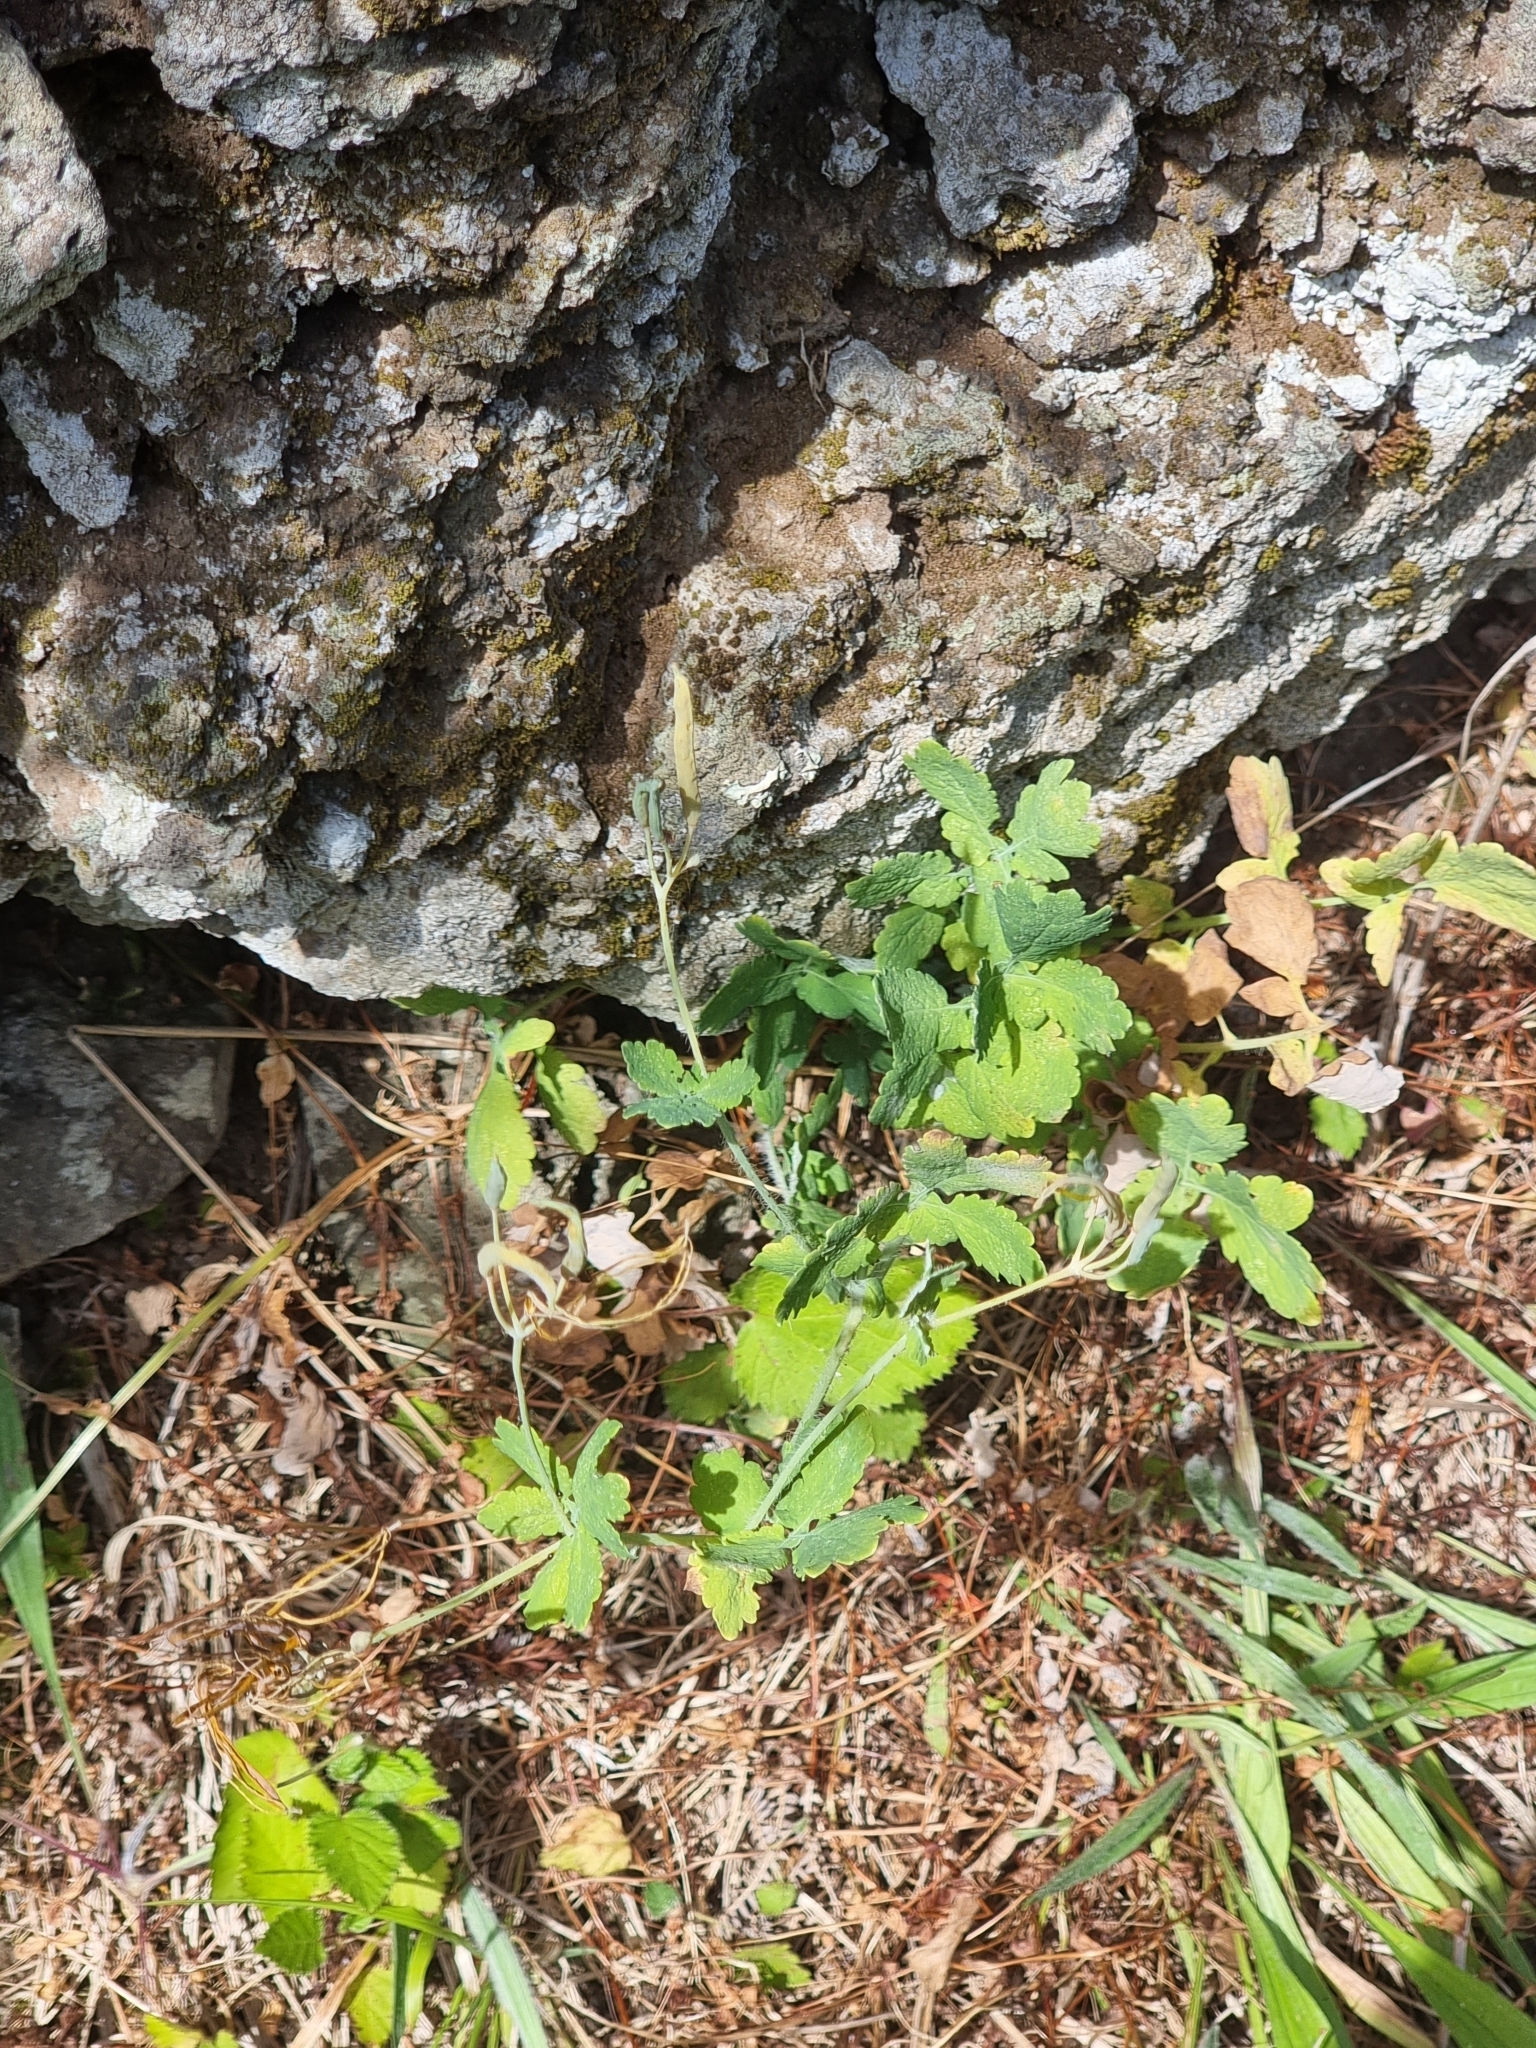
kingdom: Plantae
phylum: Tracheophyta
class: Magnoliopsida
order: Ranunculales
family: Papaveraceae
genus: Chelidonium
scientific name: Chelidonium majus
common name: Greater celandine
